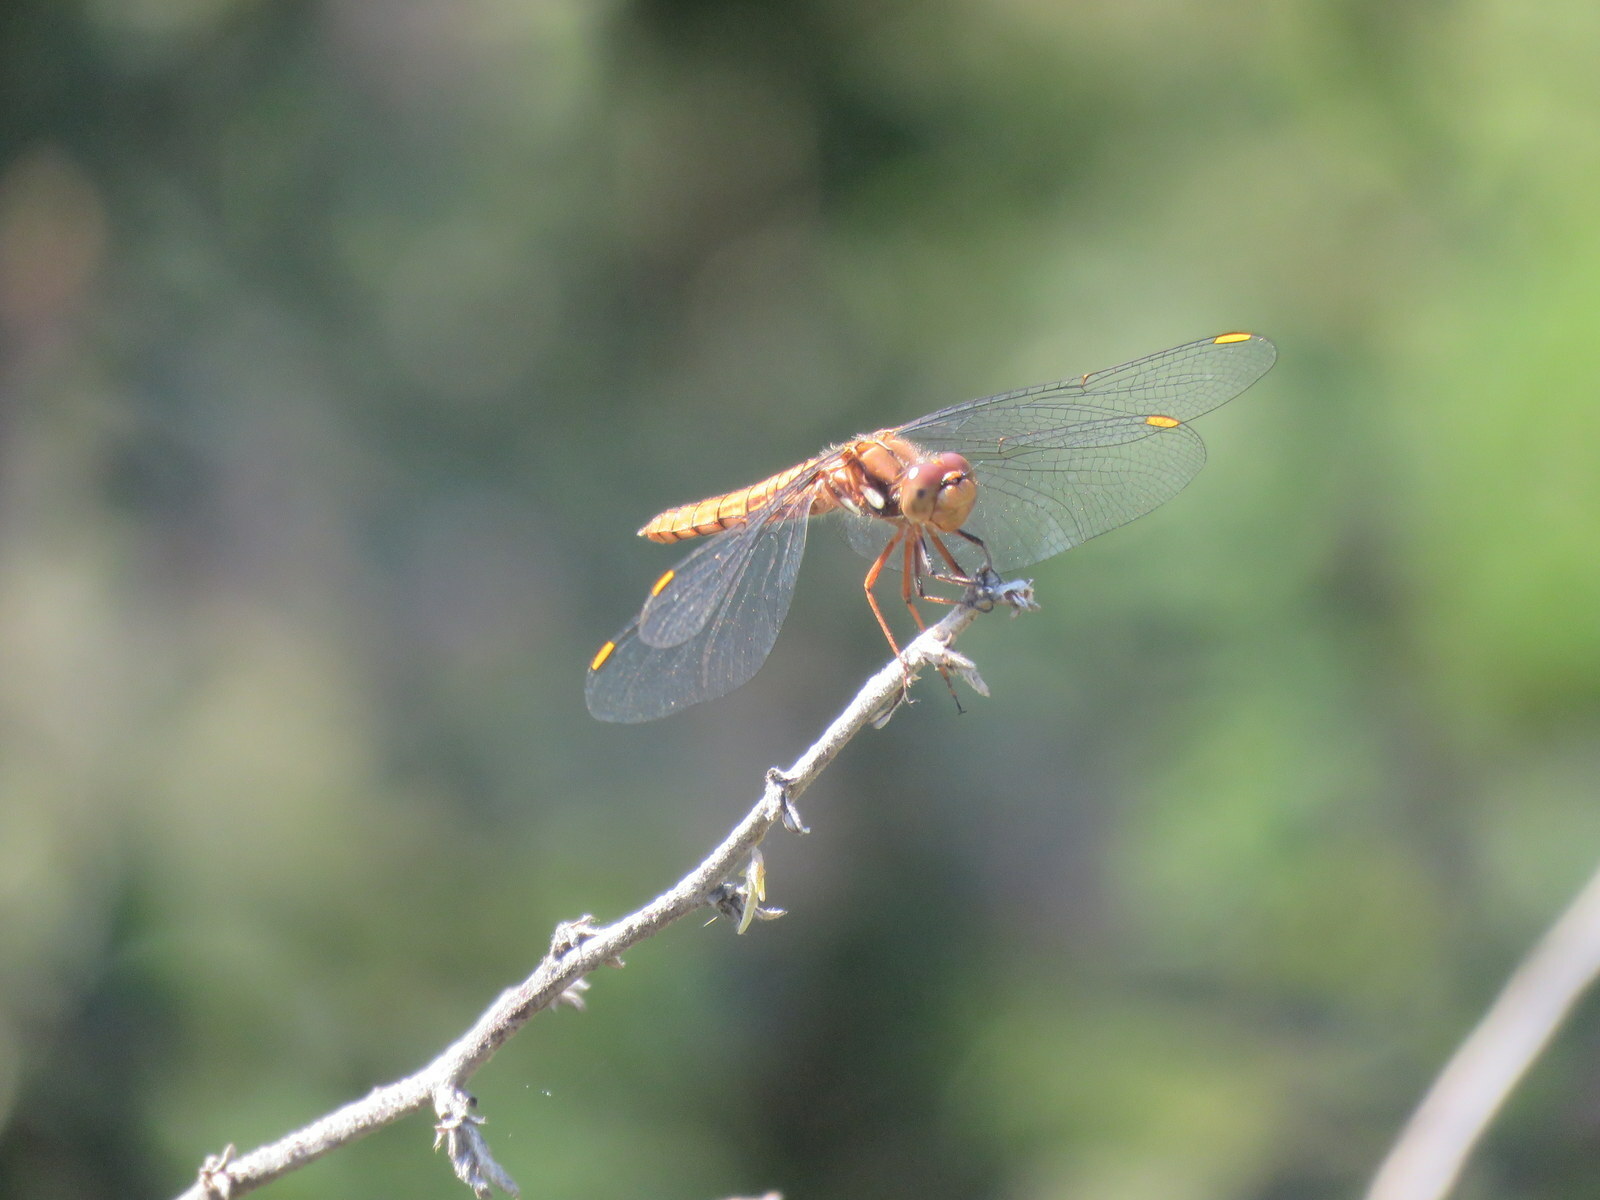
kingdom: Animalia
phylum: Arthropoda
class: Insecta
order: Odonata
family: Libellulidae
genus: Sympetrum
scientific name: Sympetrum gilvum
